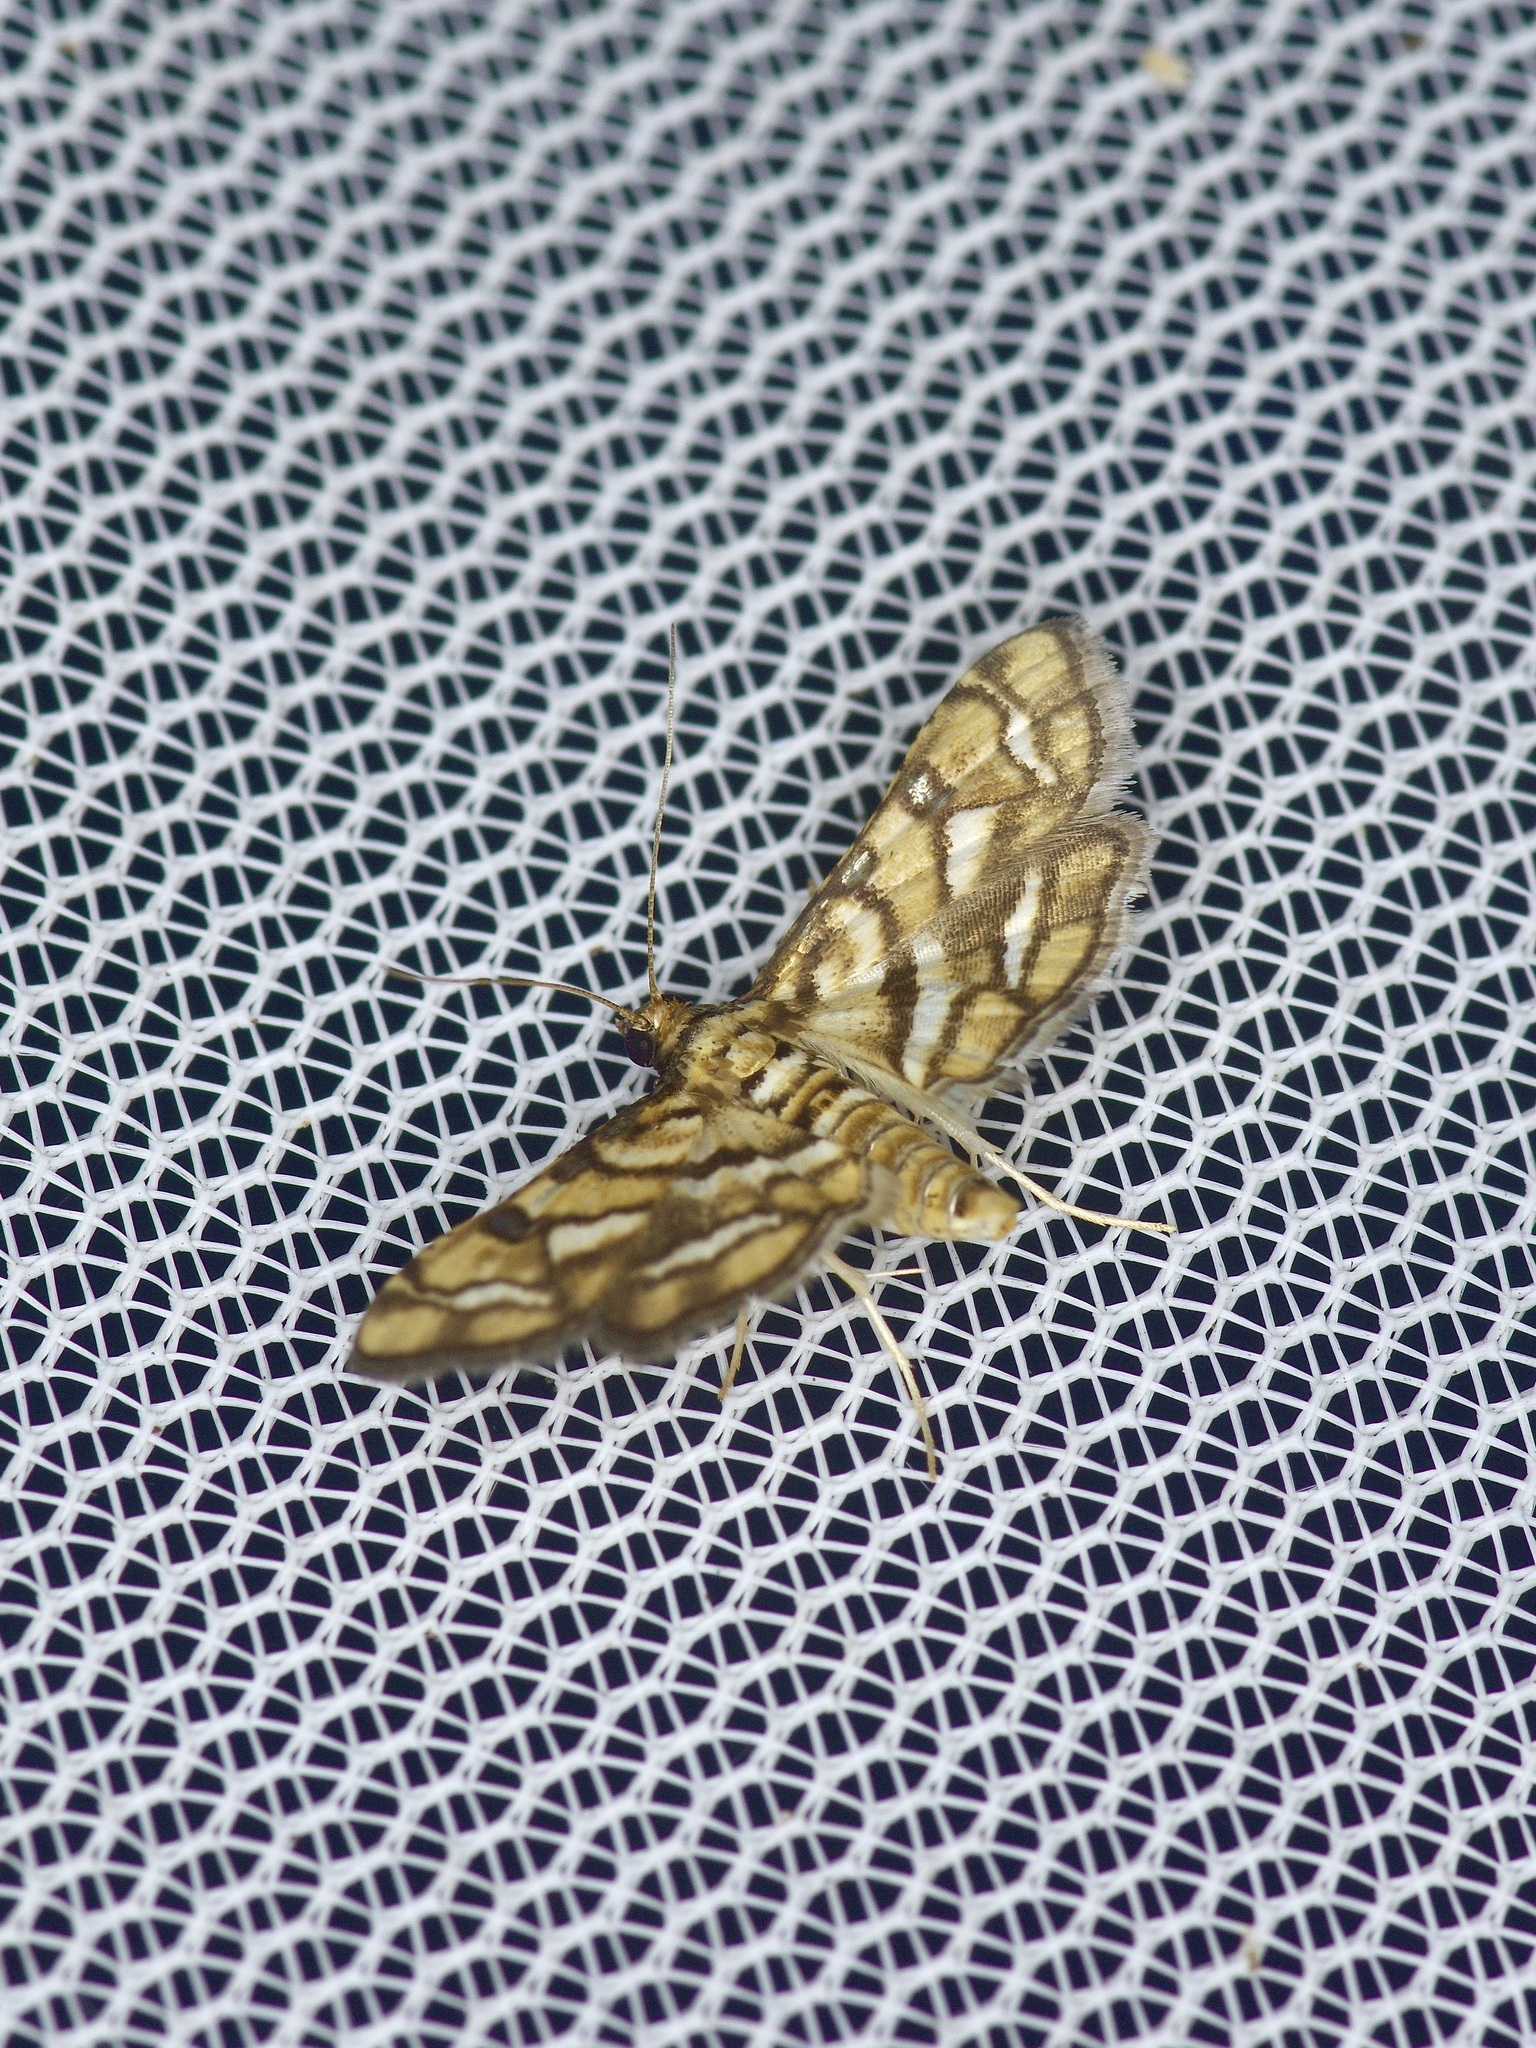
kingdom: Animalia
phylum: Arthropoda
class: Insecta
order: Lepidoptera
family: Crambidae
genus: Hileithia
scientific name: Hileithia magualis
